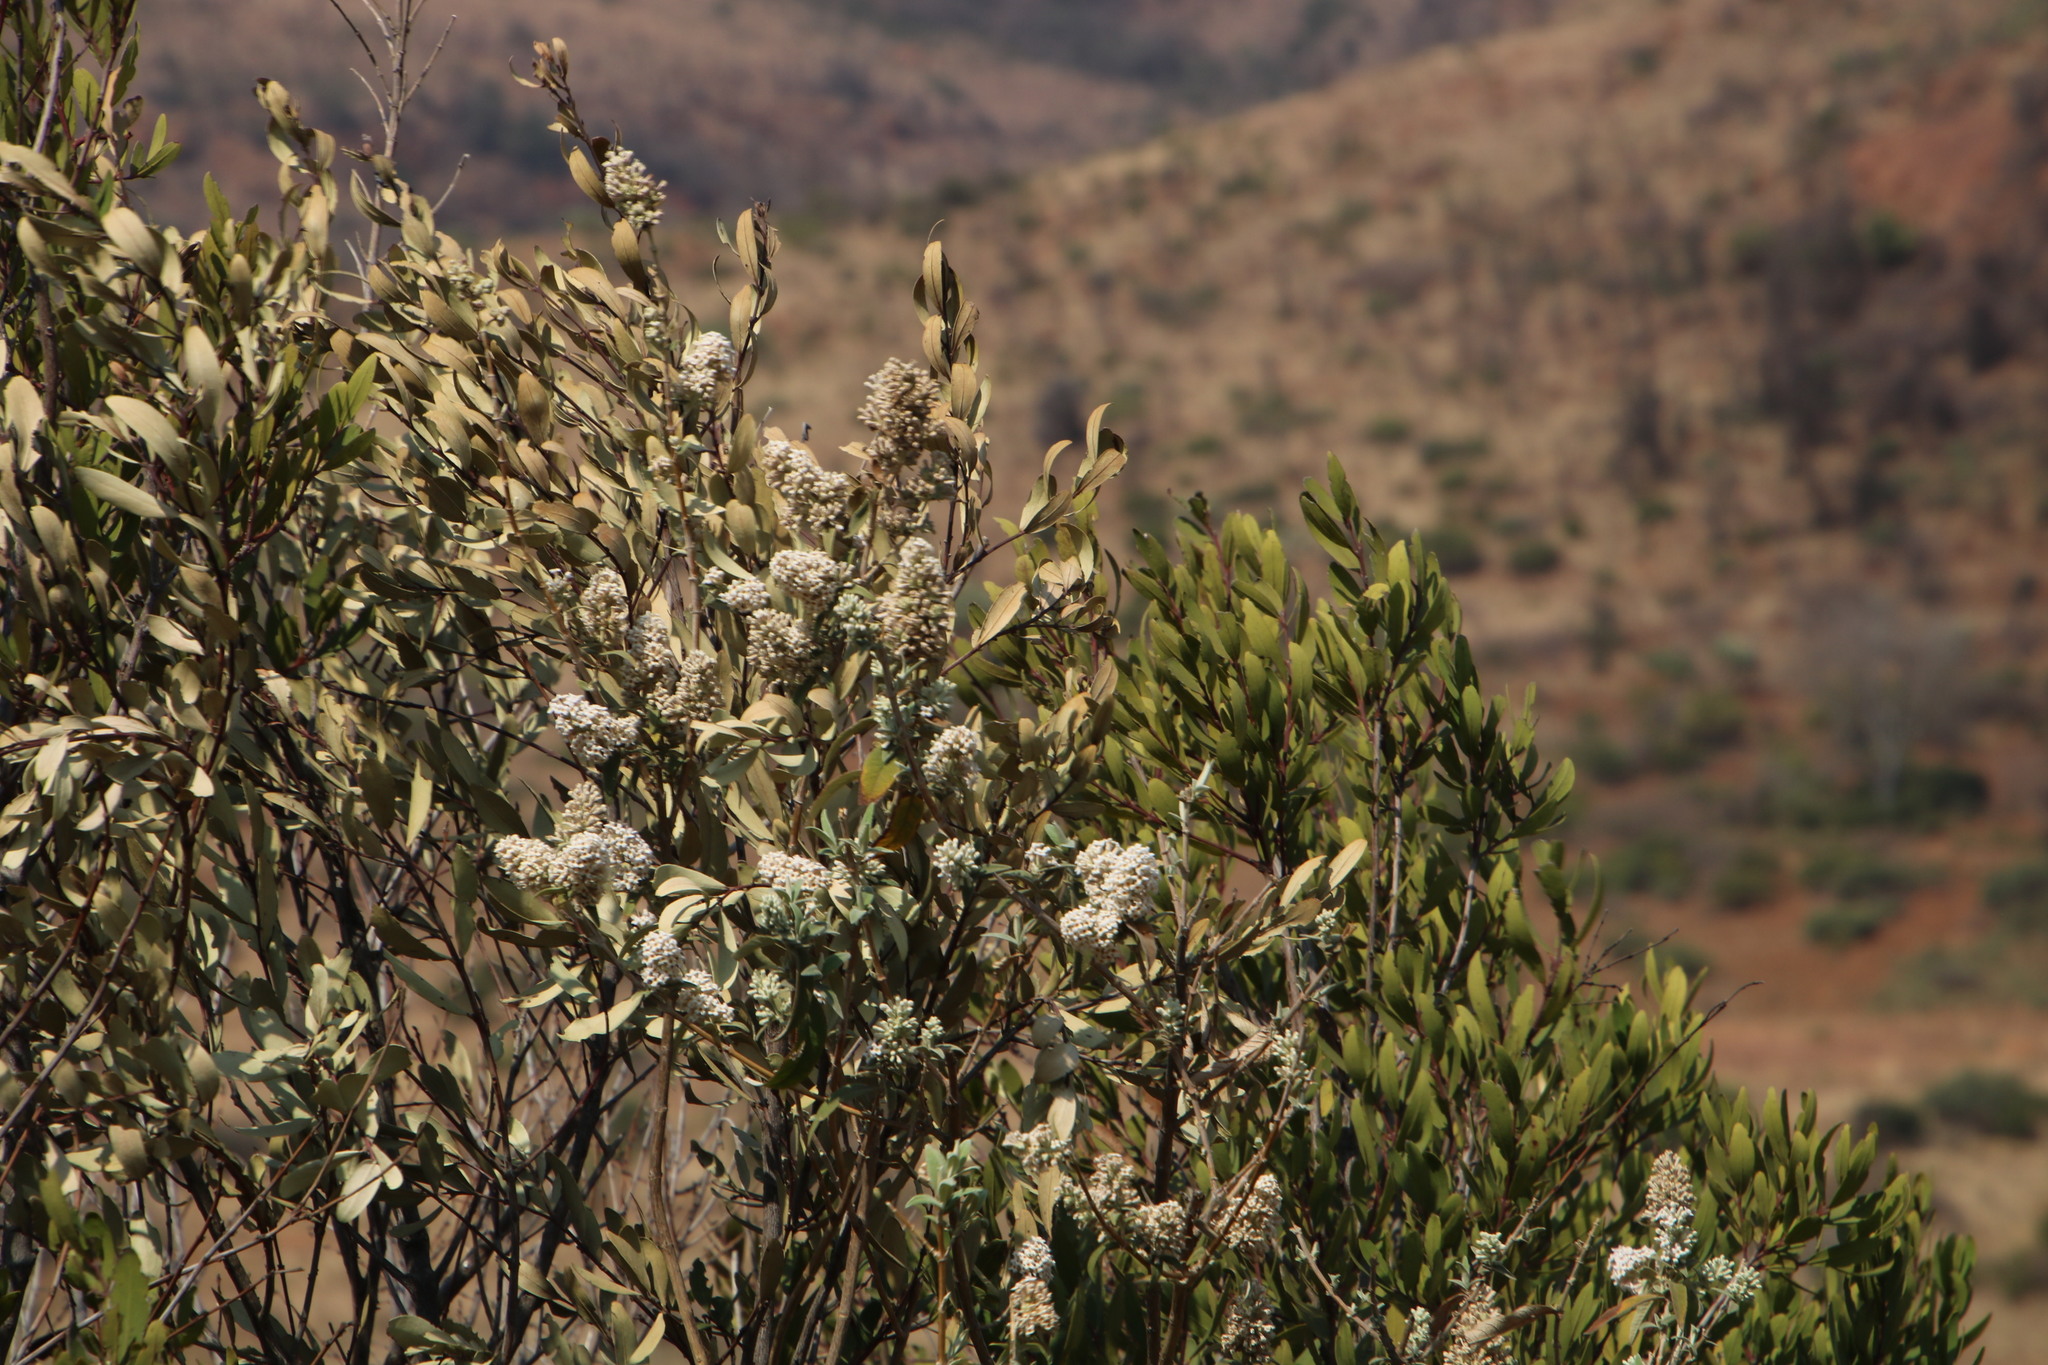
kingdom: Plantae
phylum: Tracheophyta
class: Magnoliopsida
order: Lamiales
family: Scrophulariaceae
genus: Buddleja
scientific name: Buddleja salviifolia
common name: Sagewood
